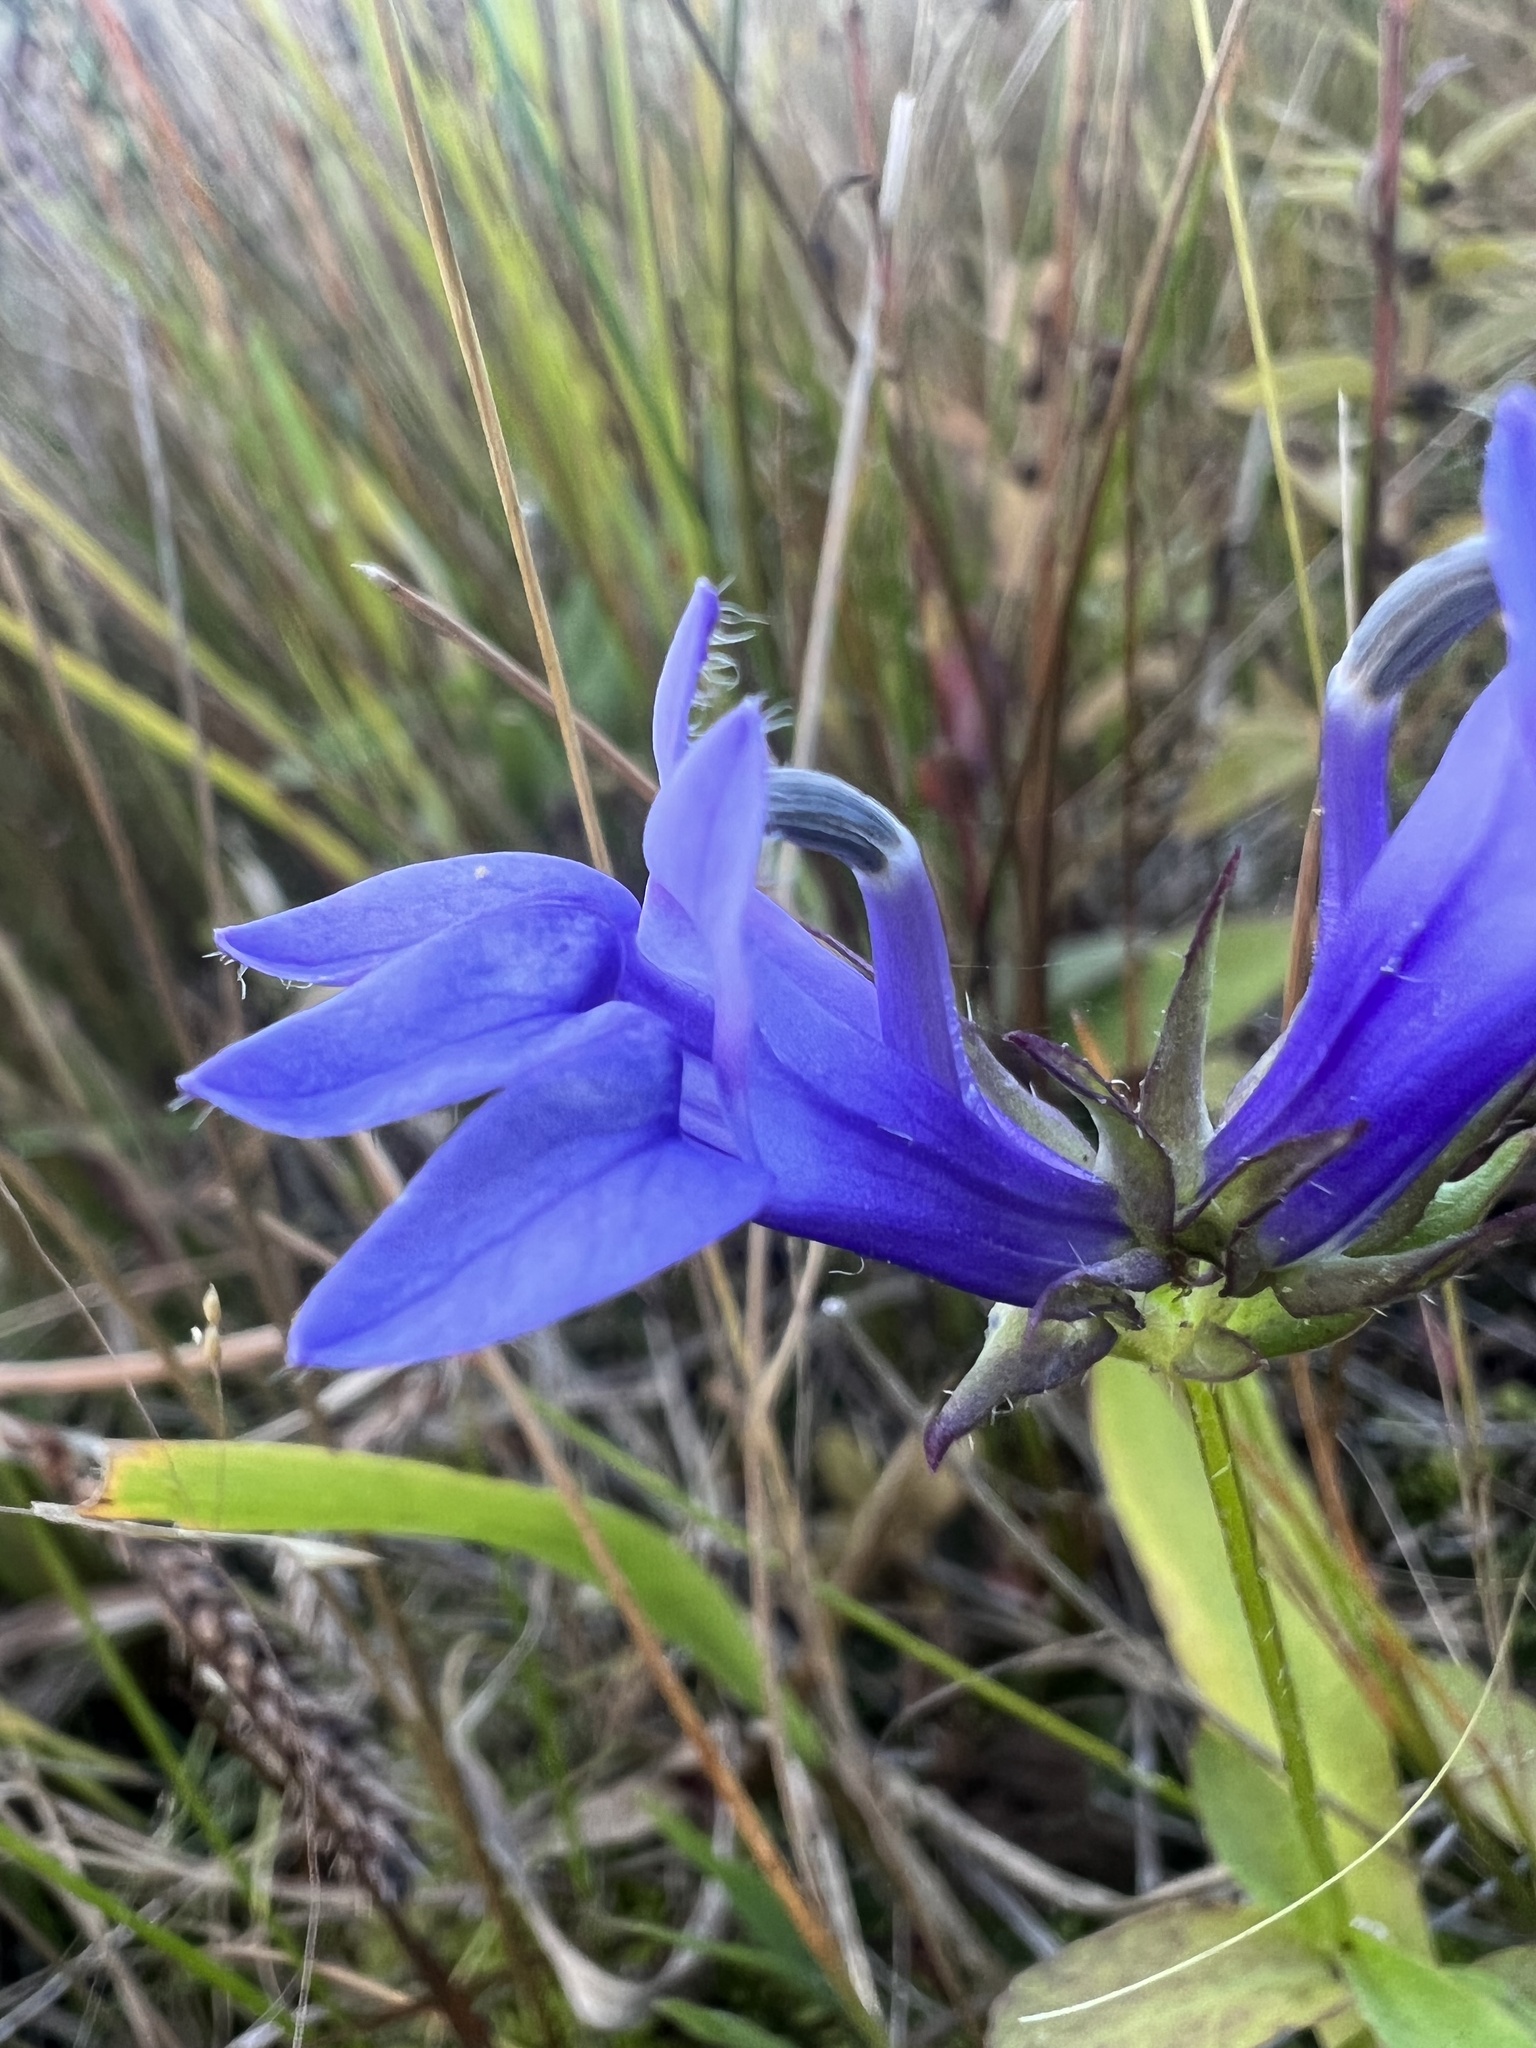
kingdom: Plantae
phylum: Tracheophyta
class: Magnoliopsida
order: Asterales
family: Campanulaceae
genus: Lobelia
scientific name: Lobelia siphilitica
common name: Great lobelia
